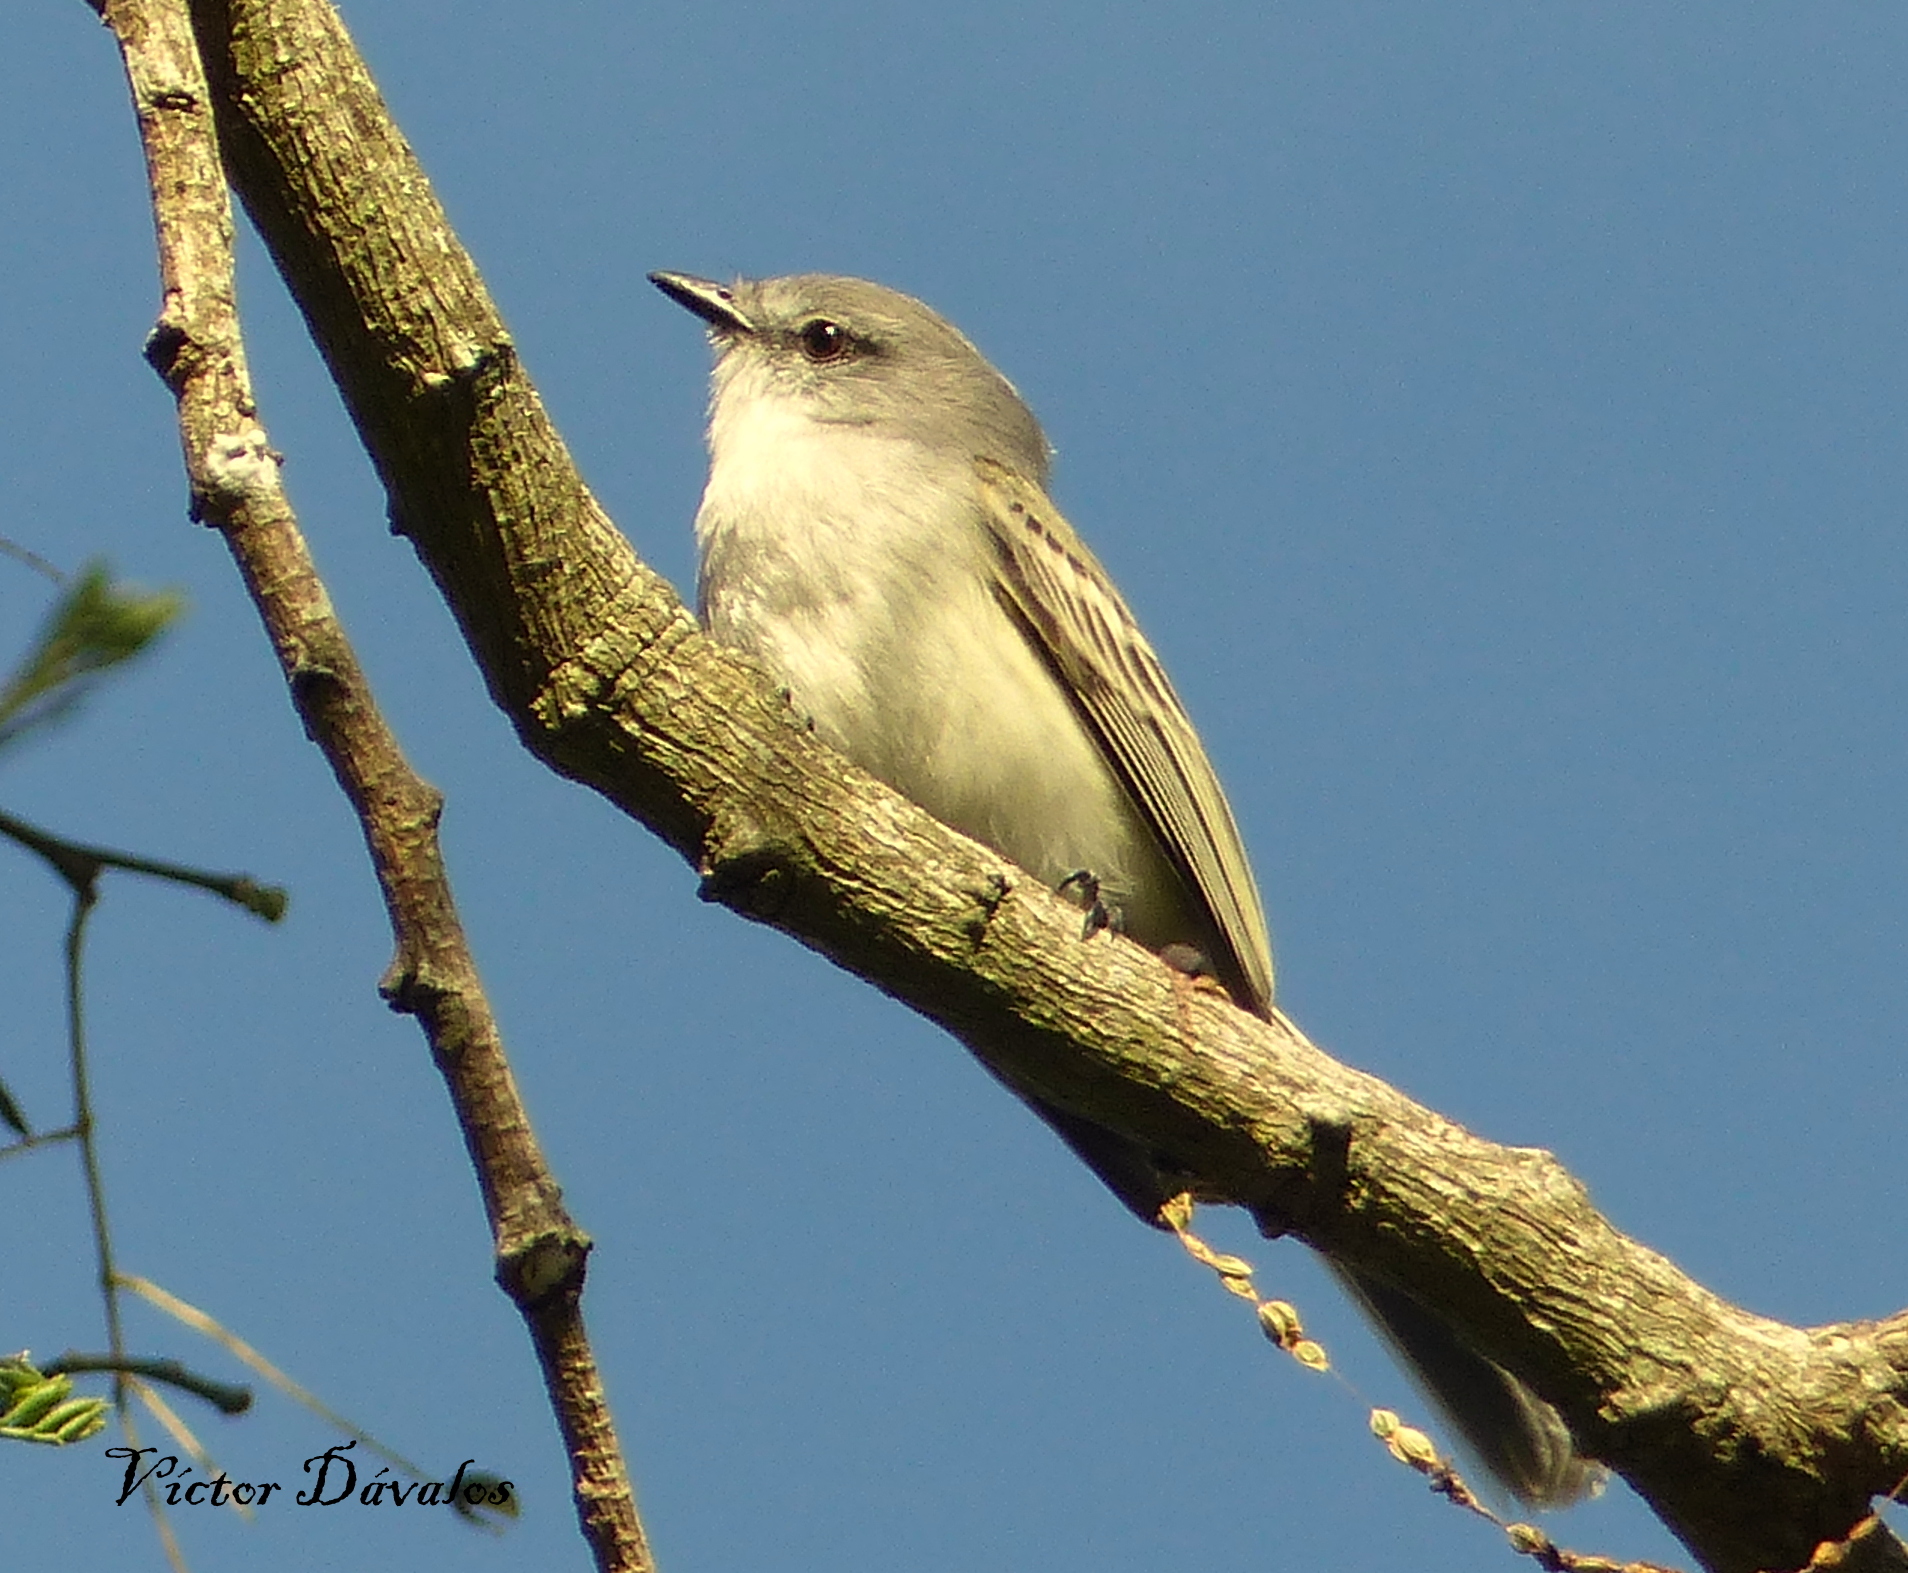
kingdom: Animalia
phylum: Chordata
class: Aves
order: Passeriformes
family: Tyrannidae
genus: Suiriri
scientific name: Suiriri suiriri
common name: Suiriri flycatcher
